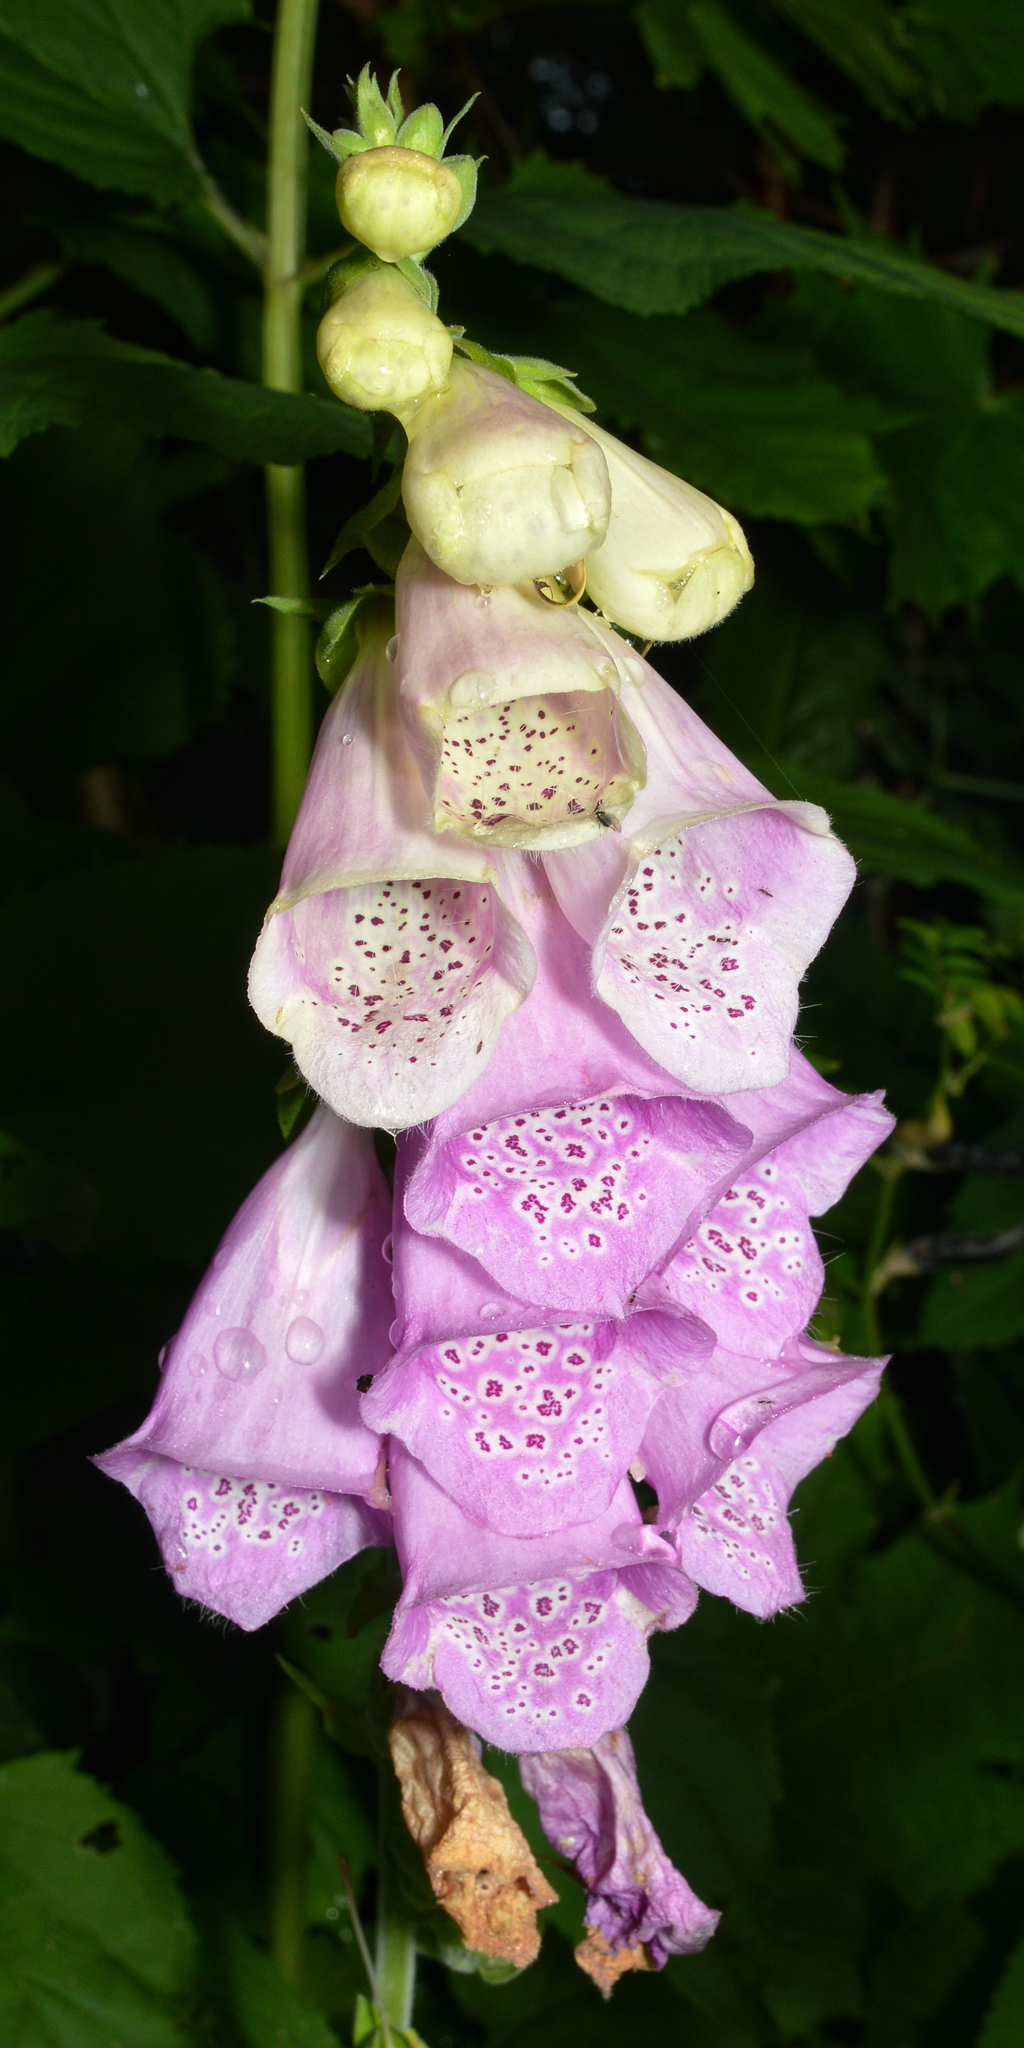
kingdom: Plantae
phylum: Tracheophyta
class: Magnoliopsida
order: Lamiales
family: Plantaginaceae
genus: Digitalis
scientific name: Digitalis purpurea
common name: Foxglove
